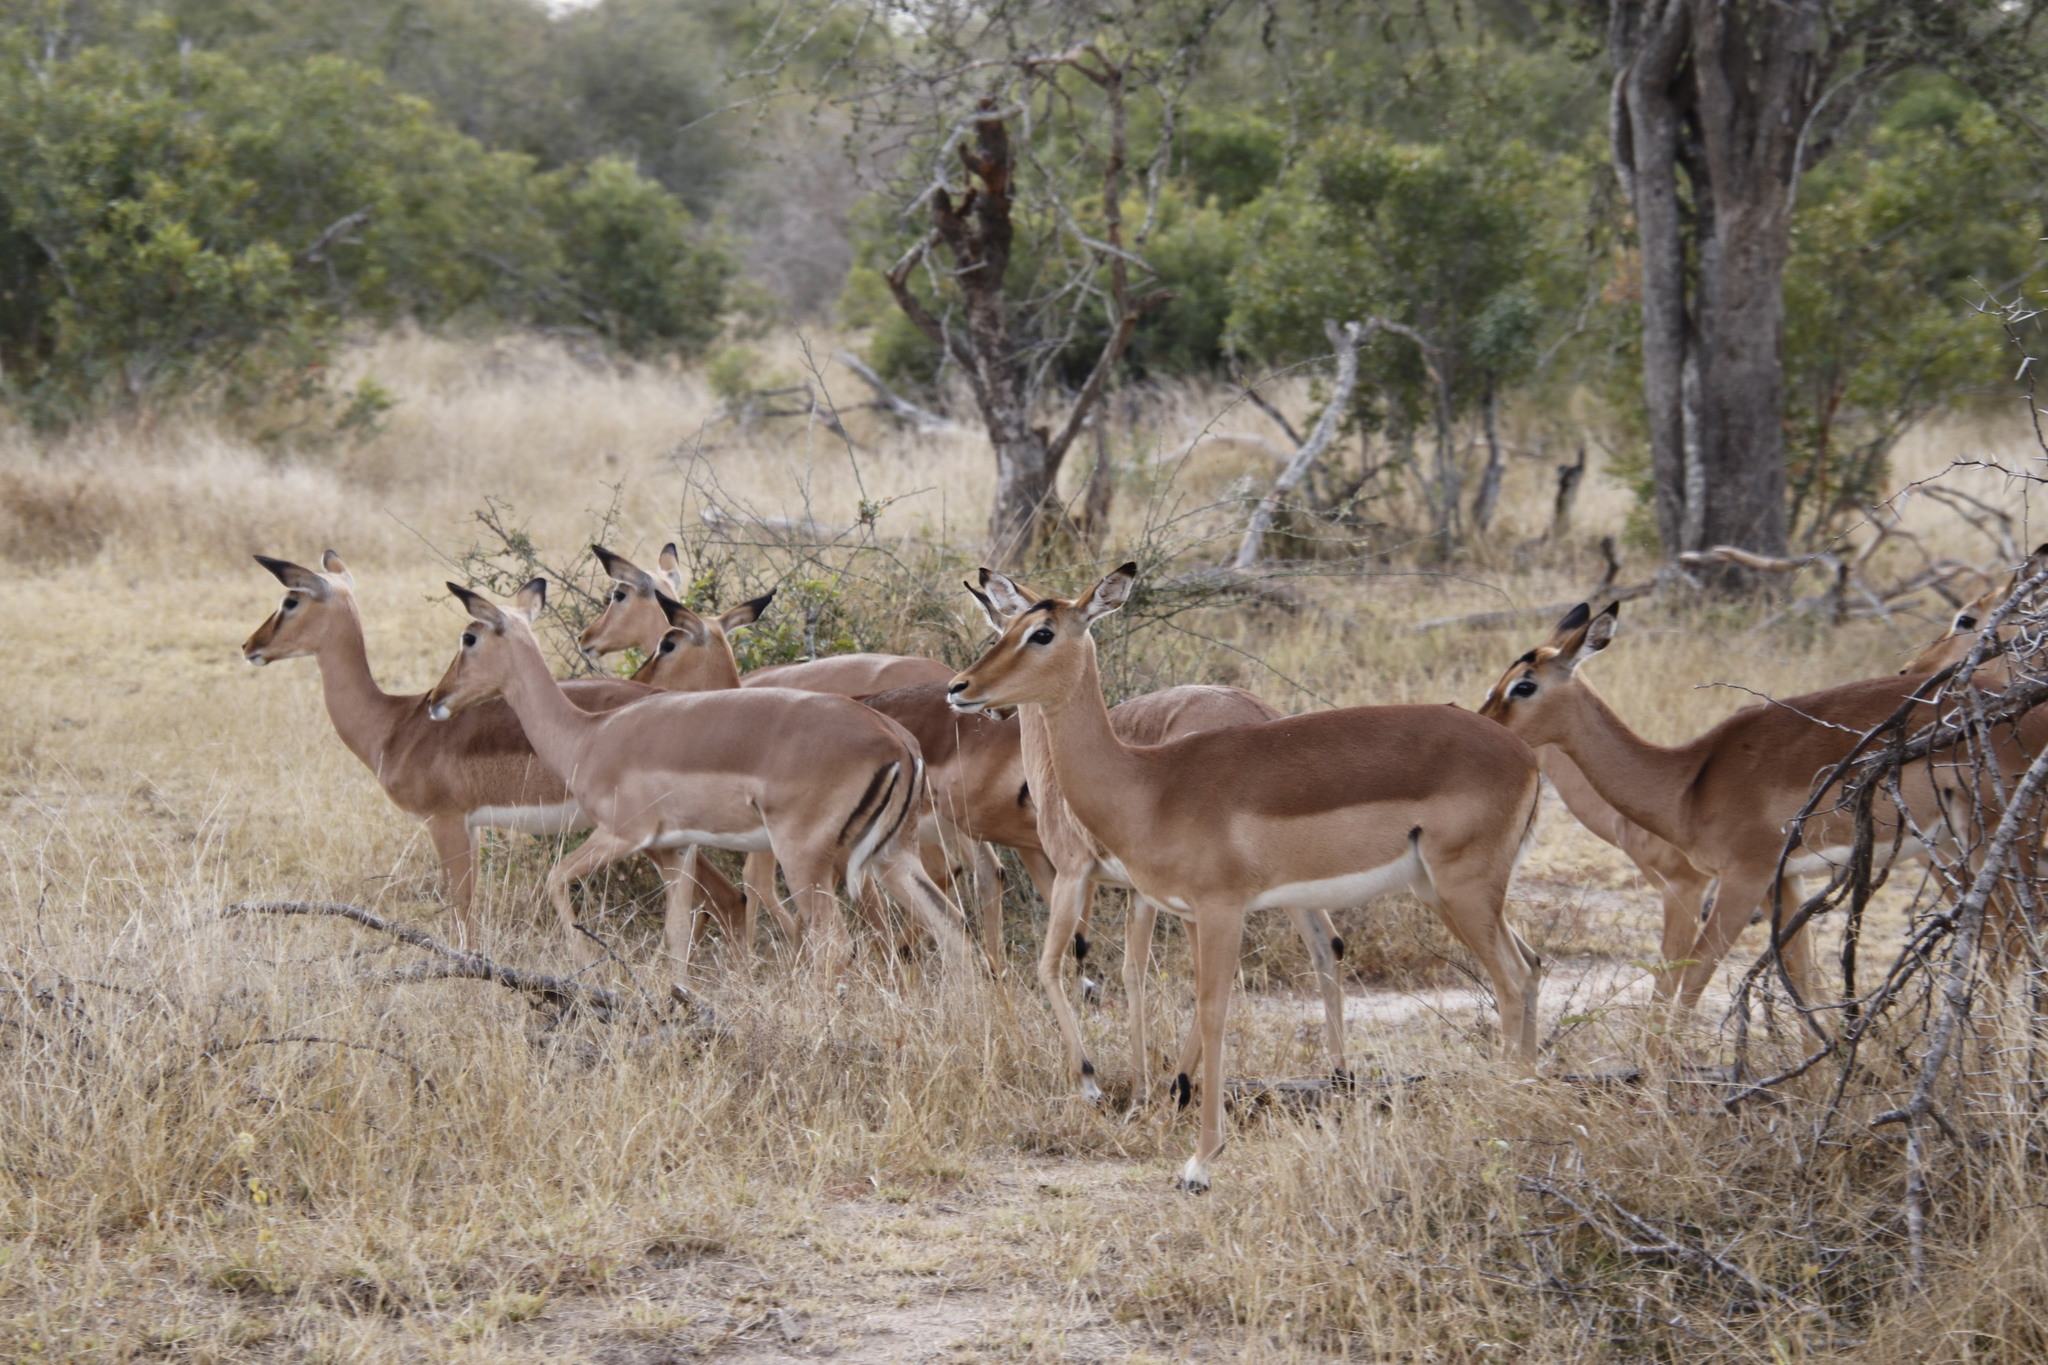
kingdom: Animalia
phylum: Chordata
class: Mammalia
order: Artiodactyla
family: Bovidae
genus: Aepyceros
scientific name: Aepyceros melampus
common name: Impala
